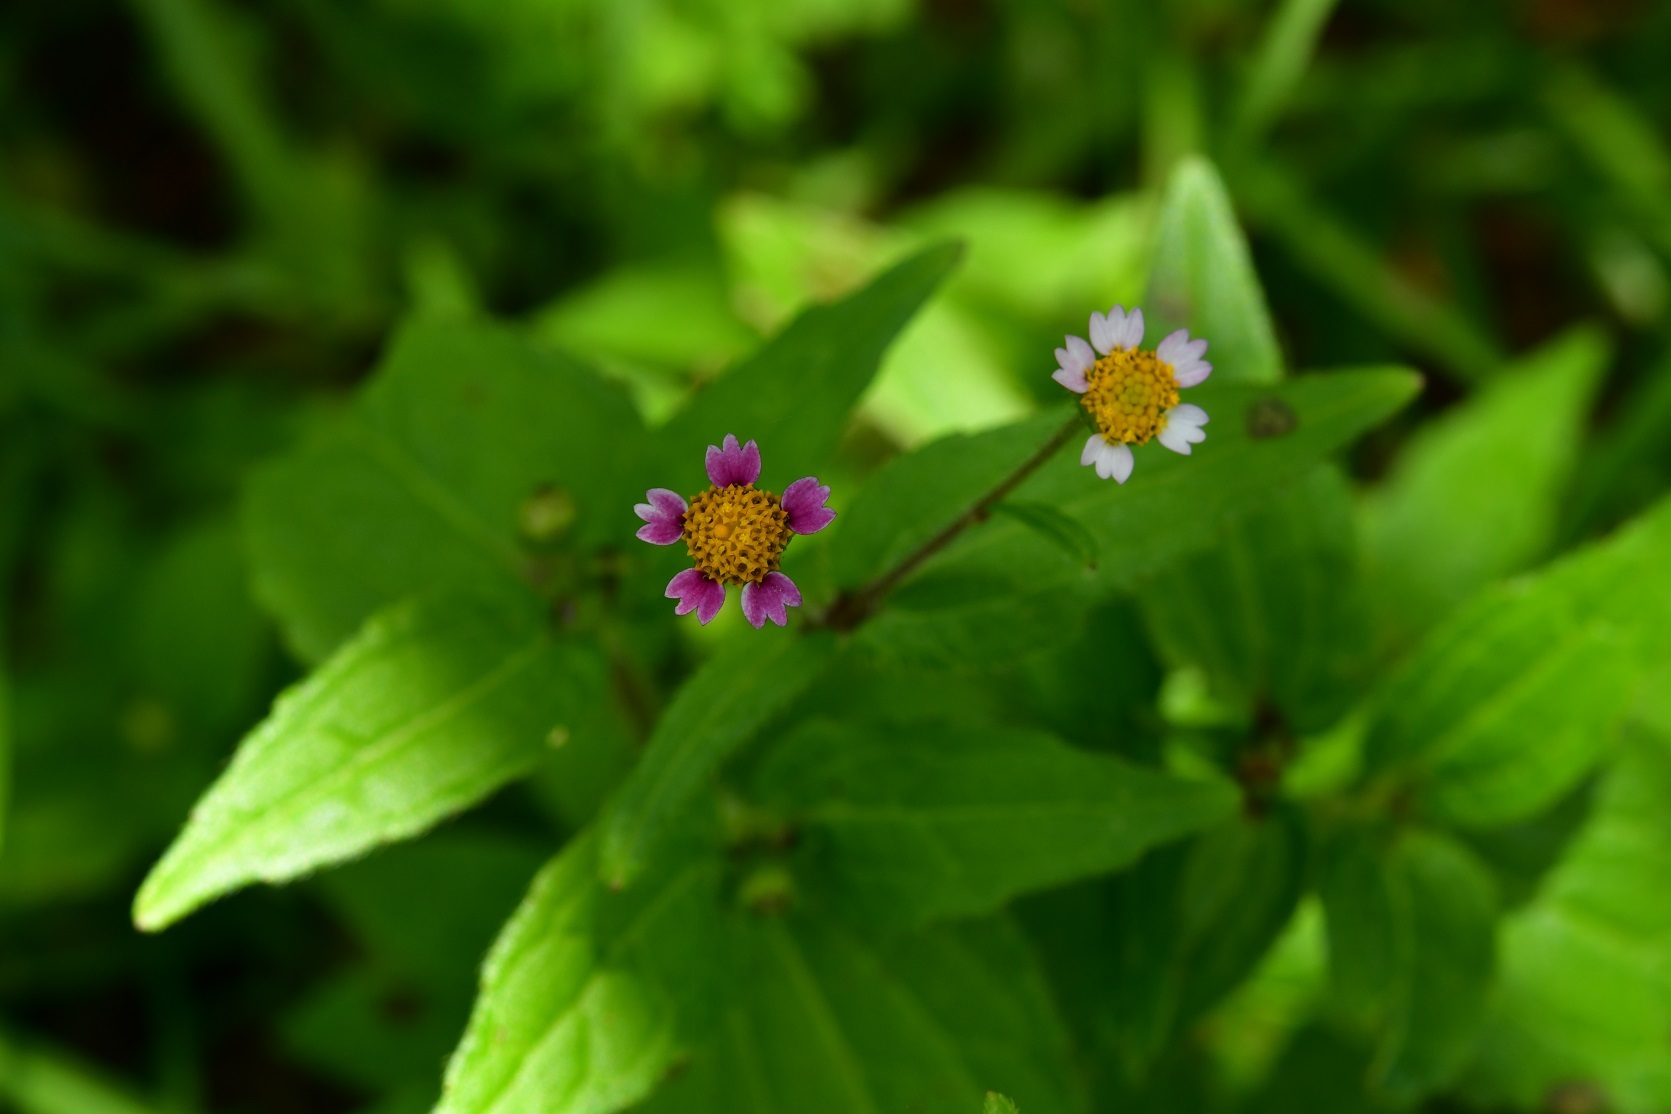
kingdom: Plantae
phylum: Tracheophyta
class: Magnoliopsida
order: Asterales
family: Asteraceae
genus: Galinsoga
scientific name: Galinsoga quadriradiata
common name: Shaggy soldier
